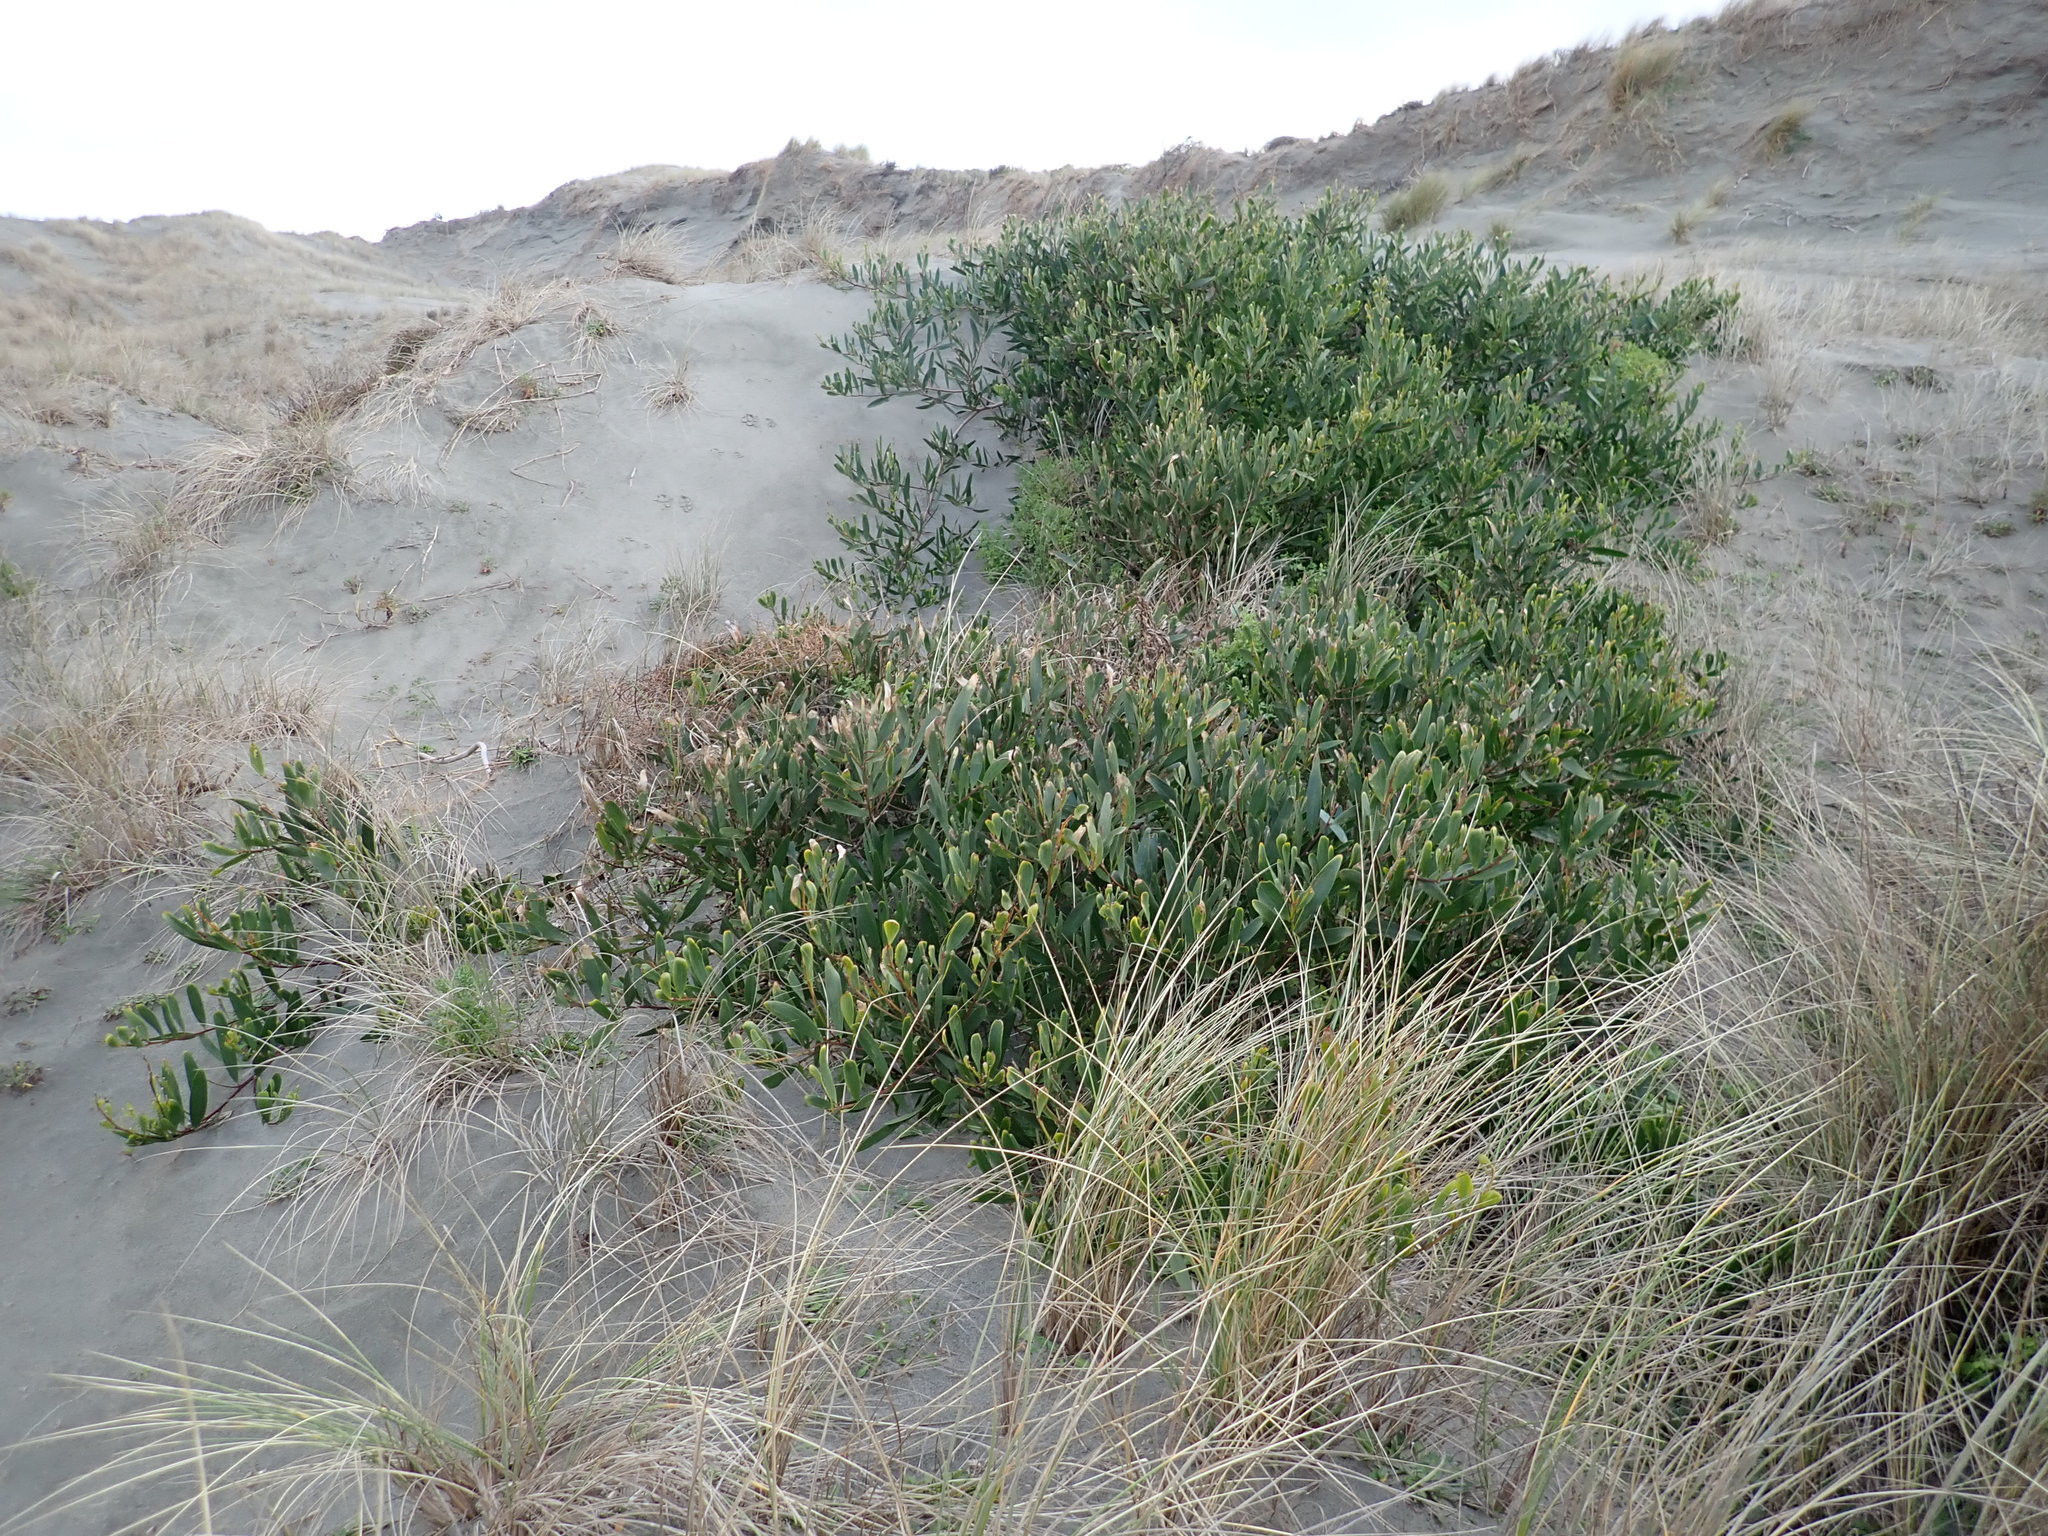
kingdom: Plantae
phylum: Tracheophyta
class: Magnoliopsida
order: Fabales
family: Fabaceae
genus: Acacia
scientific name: Acacia longifolia
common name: Sydney golden wattle
